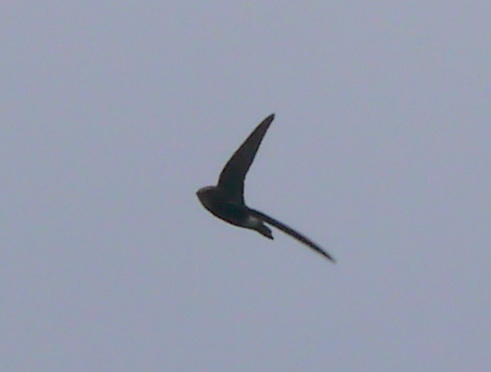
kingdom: Animalia
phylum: Chordata
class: Aves
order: Apodiformes
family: Apodidae
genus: Apus
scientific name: Apus affinis
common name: Little swift
